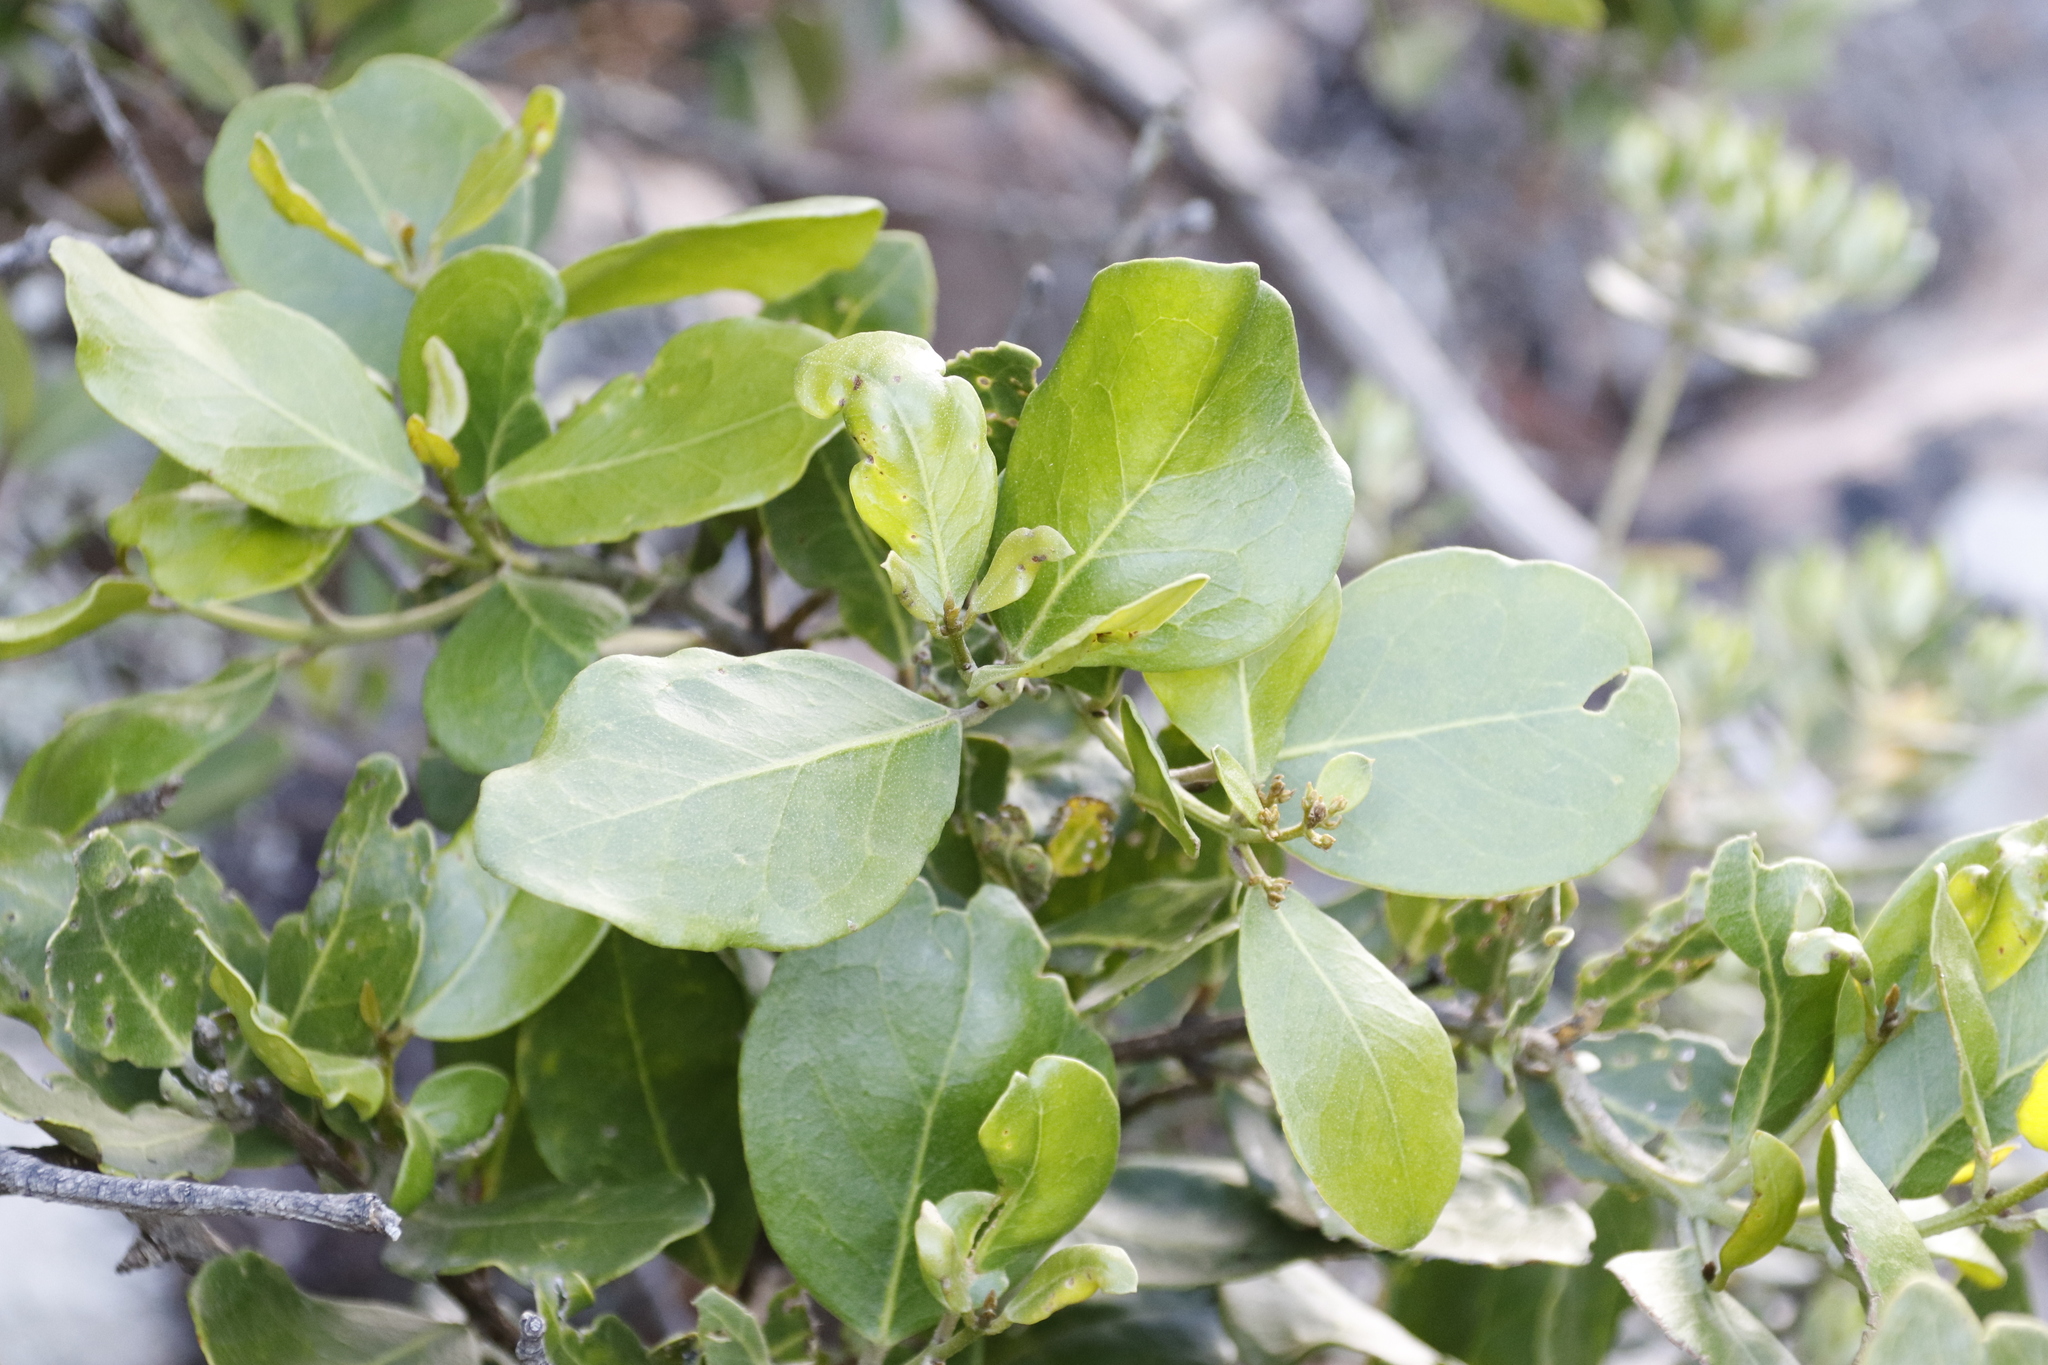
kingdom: Plantae
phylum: Tracheophyta
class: Magnoliopsida
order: Lamiales
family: Oleaceae
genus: Olea
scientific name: Olea capensis
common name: Black ironwood
